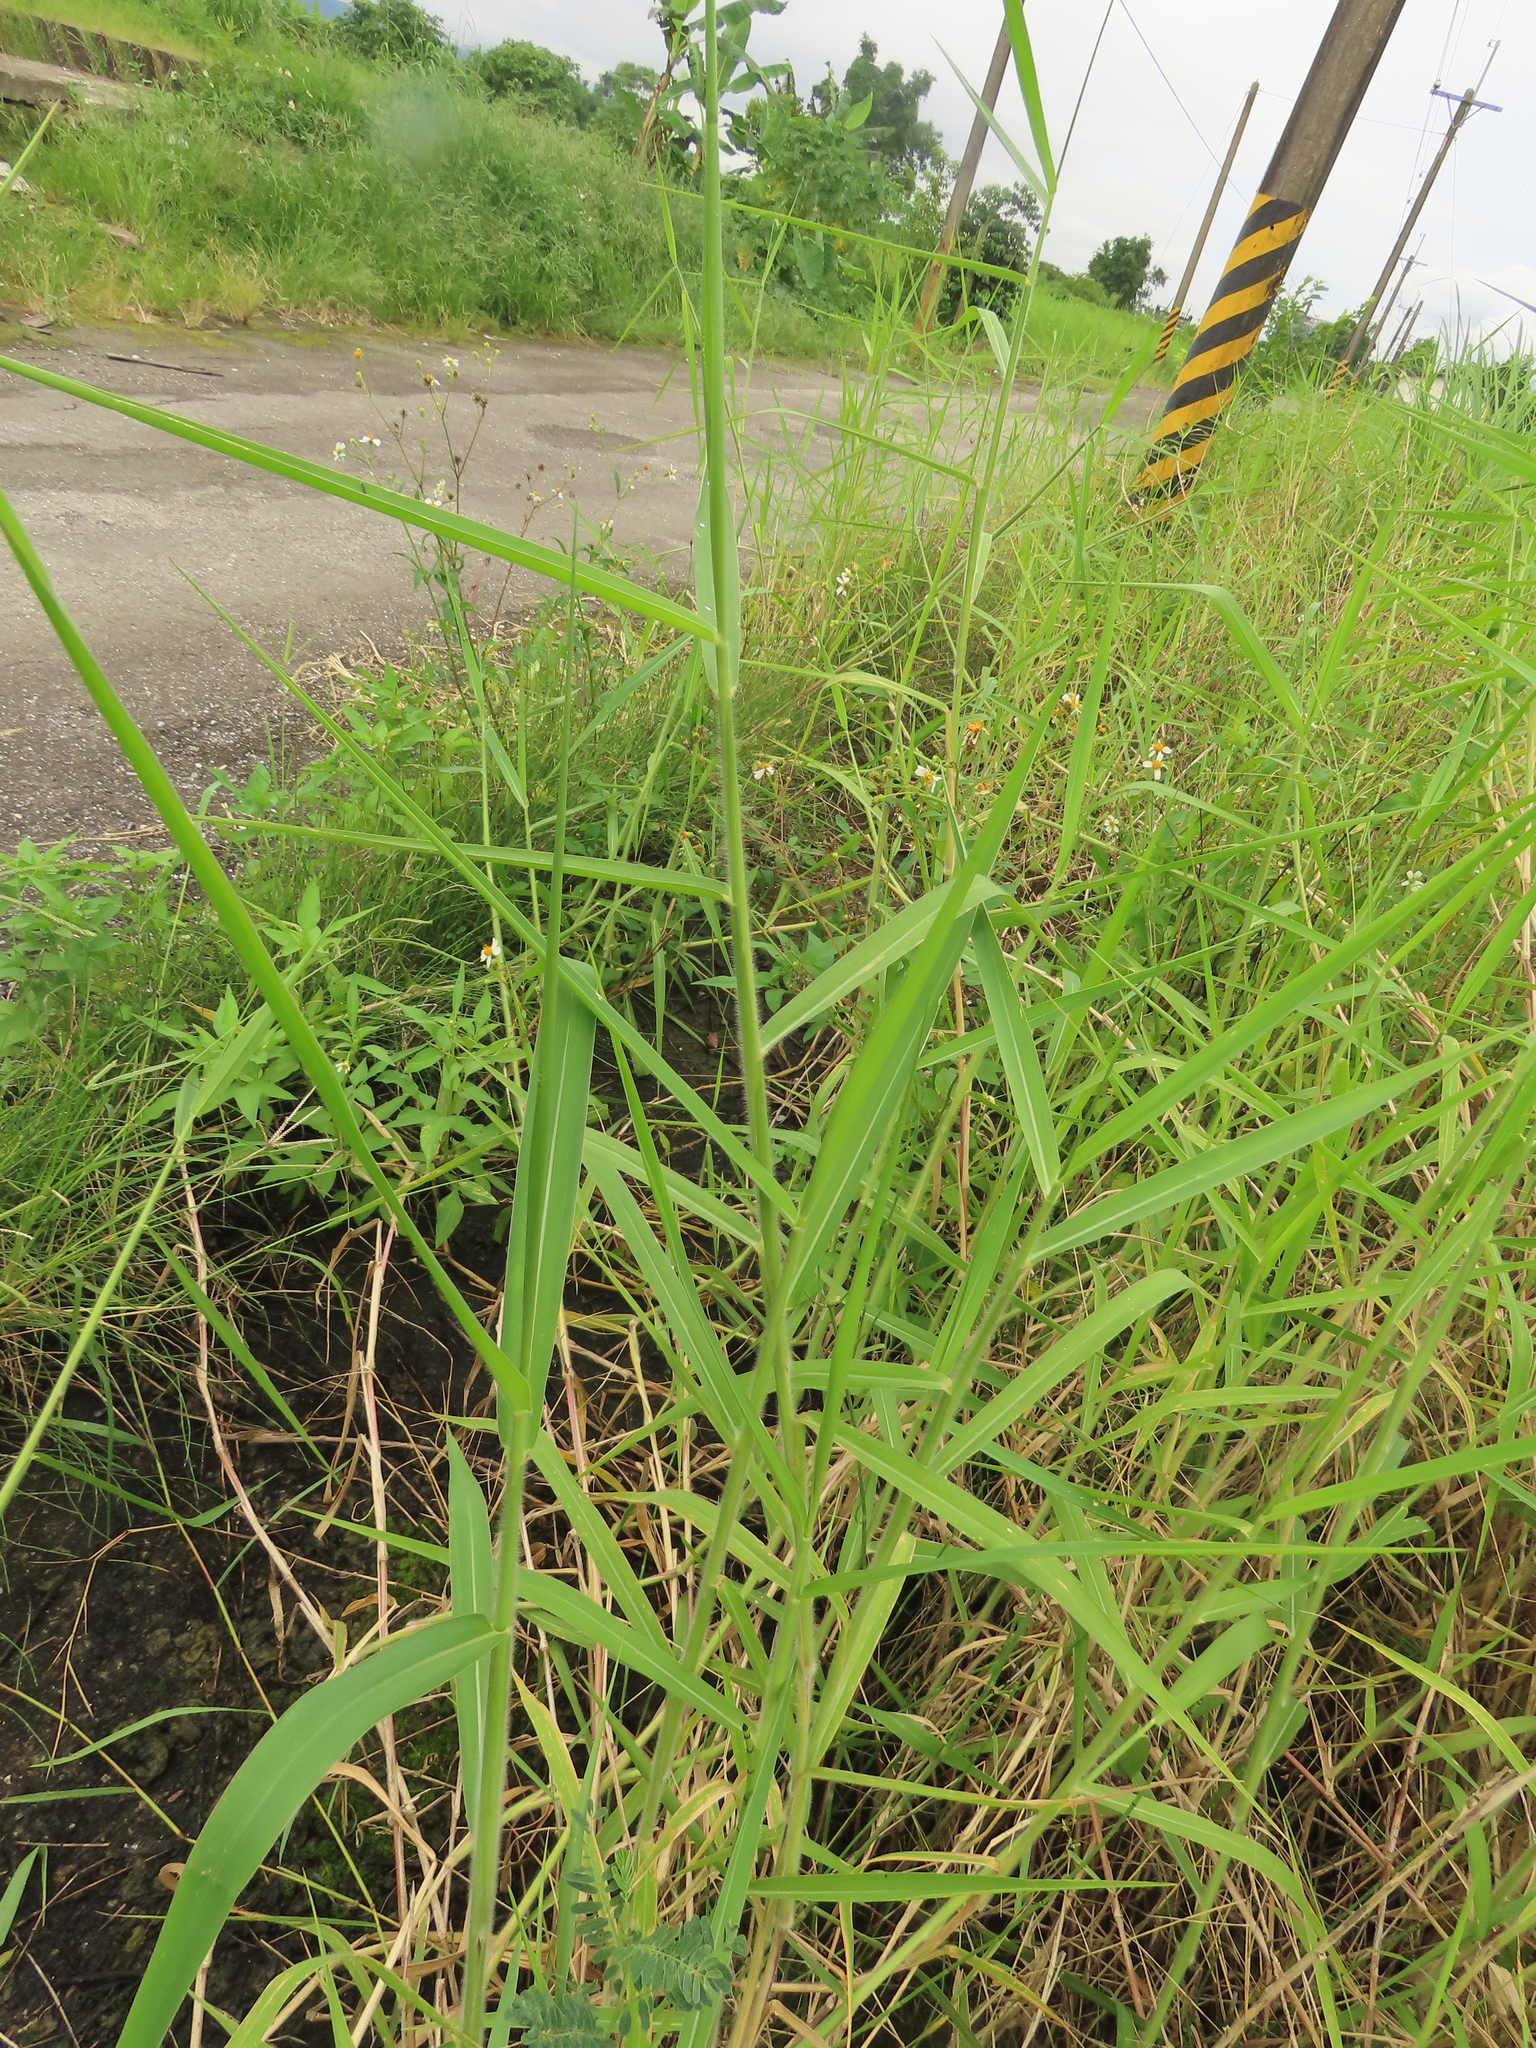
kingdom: Plantae
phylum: Tracheophyta
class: Liliopsida
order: Poales
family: Poaceae
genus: Urochloa
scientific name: Urochloa mutica
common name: Para grass
